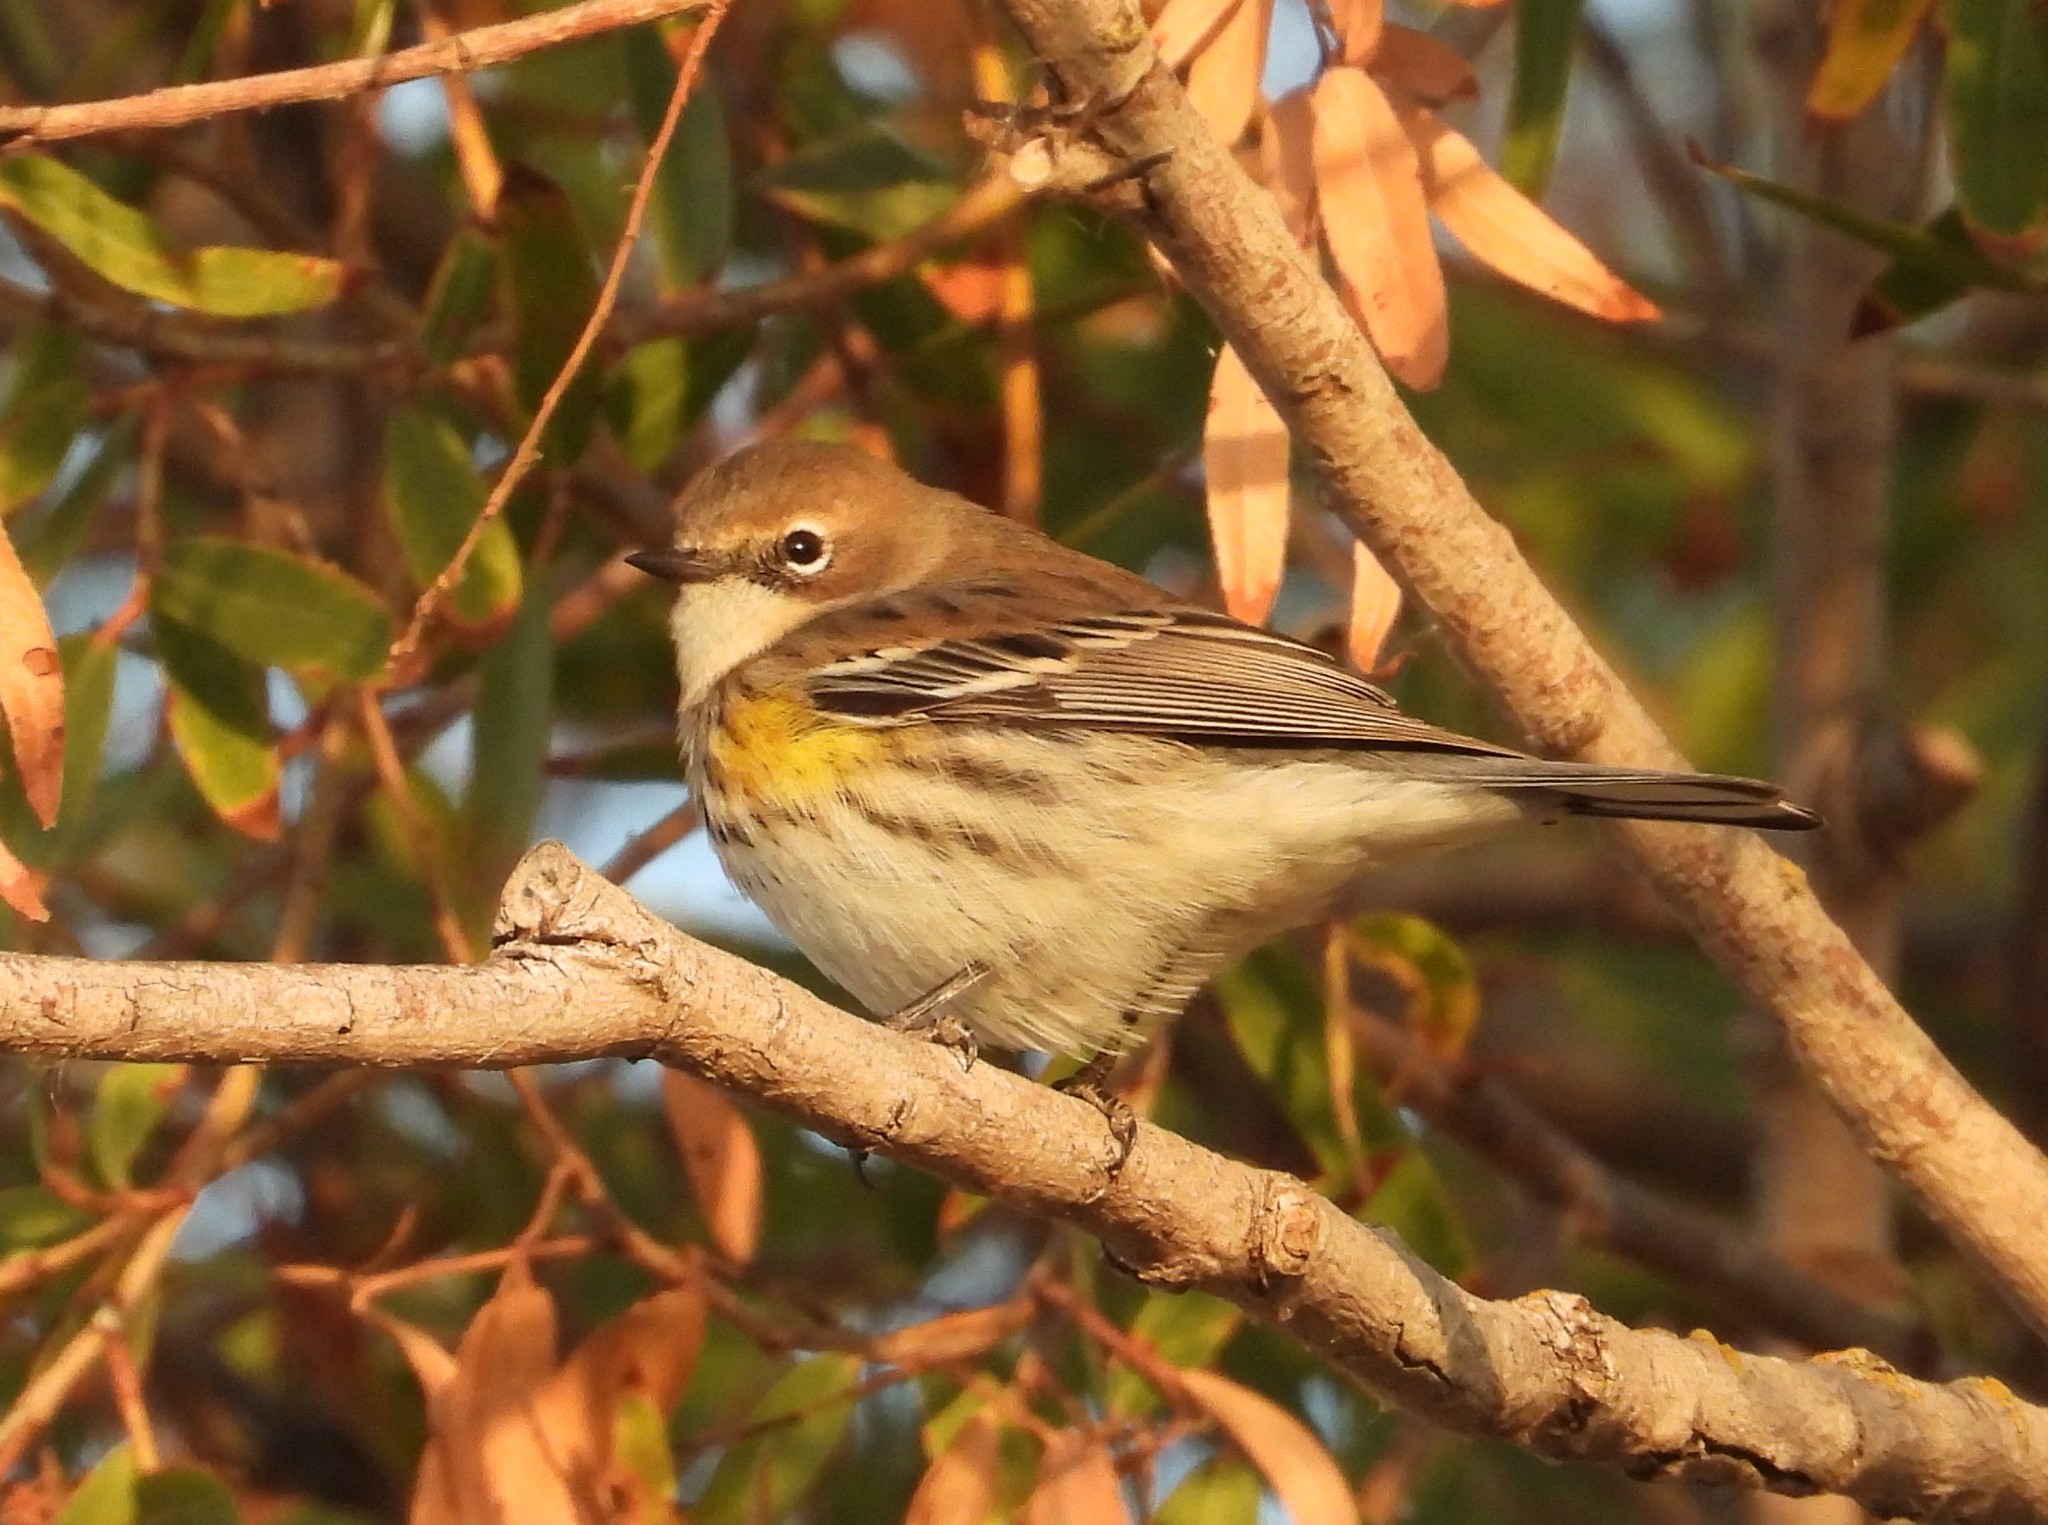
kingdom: Animalia
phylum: Chordata
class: Aves
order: Passeriformes
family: Parulidae
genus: Setophaga
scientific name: Setophaga coronata
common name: Myrtle warbler
